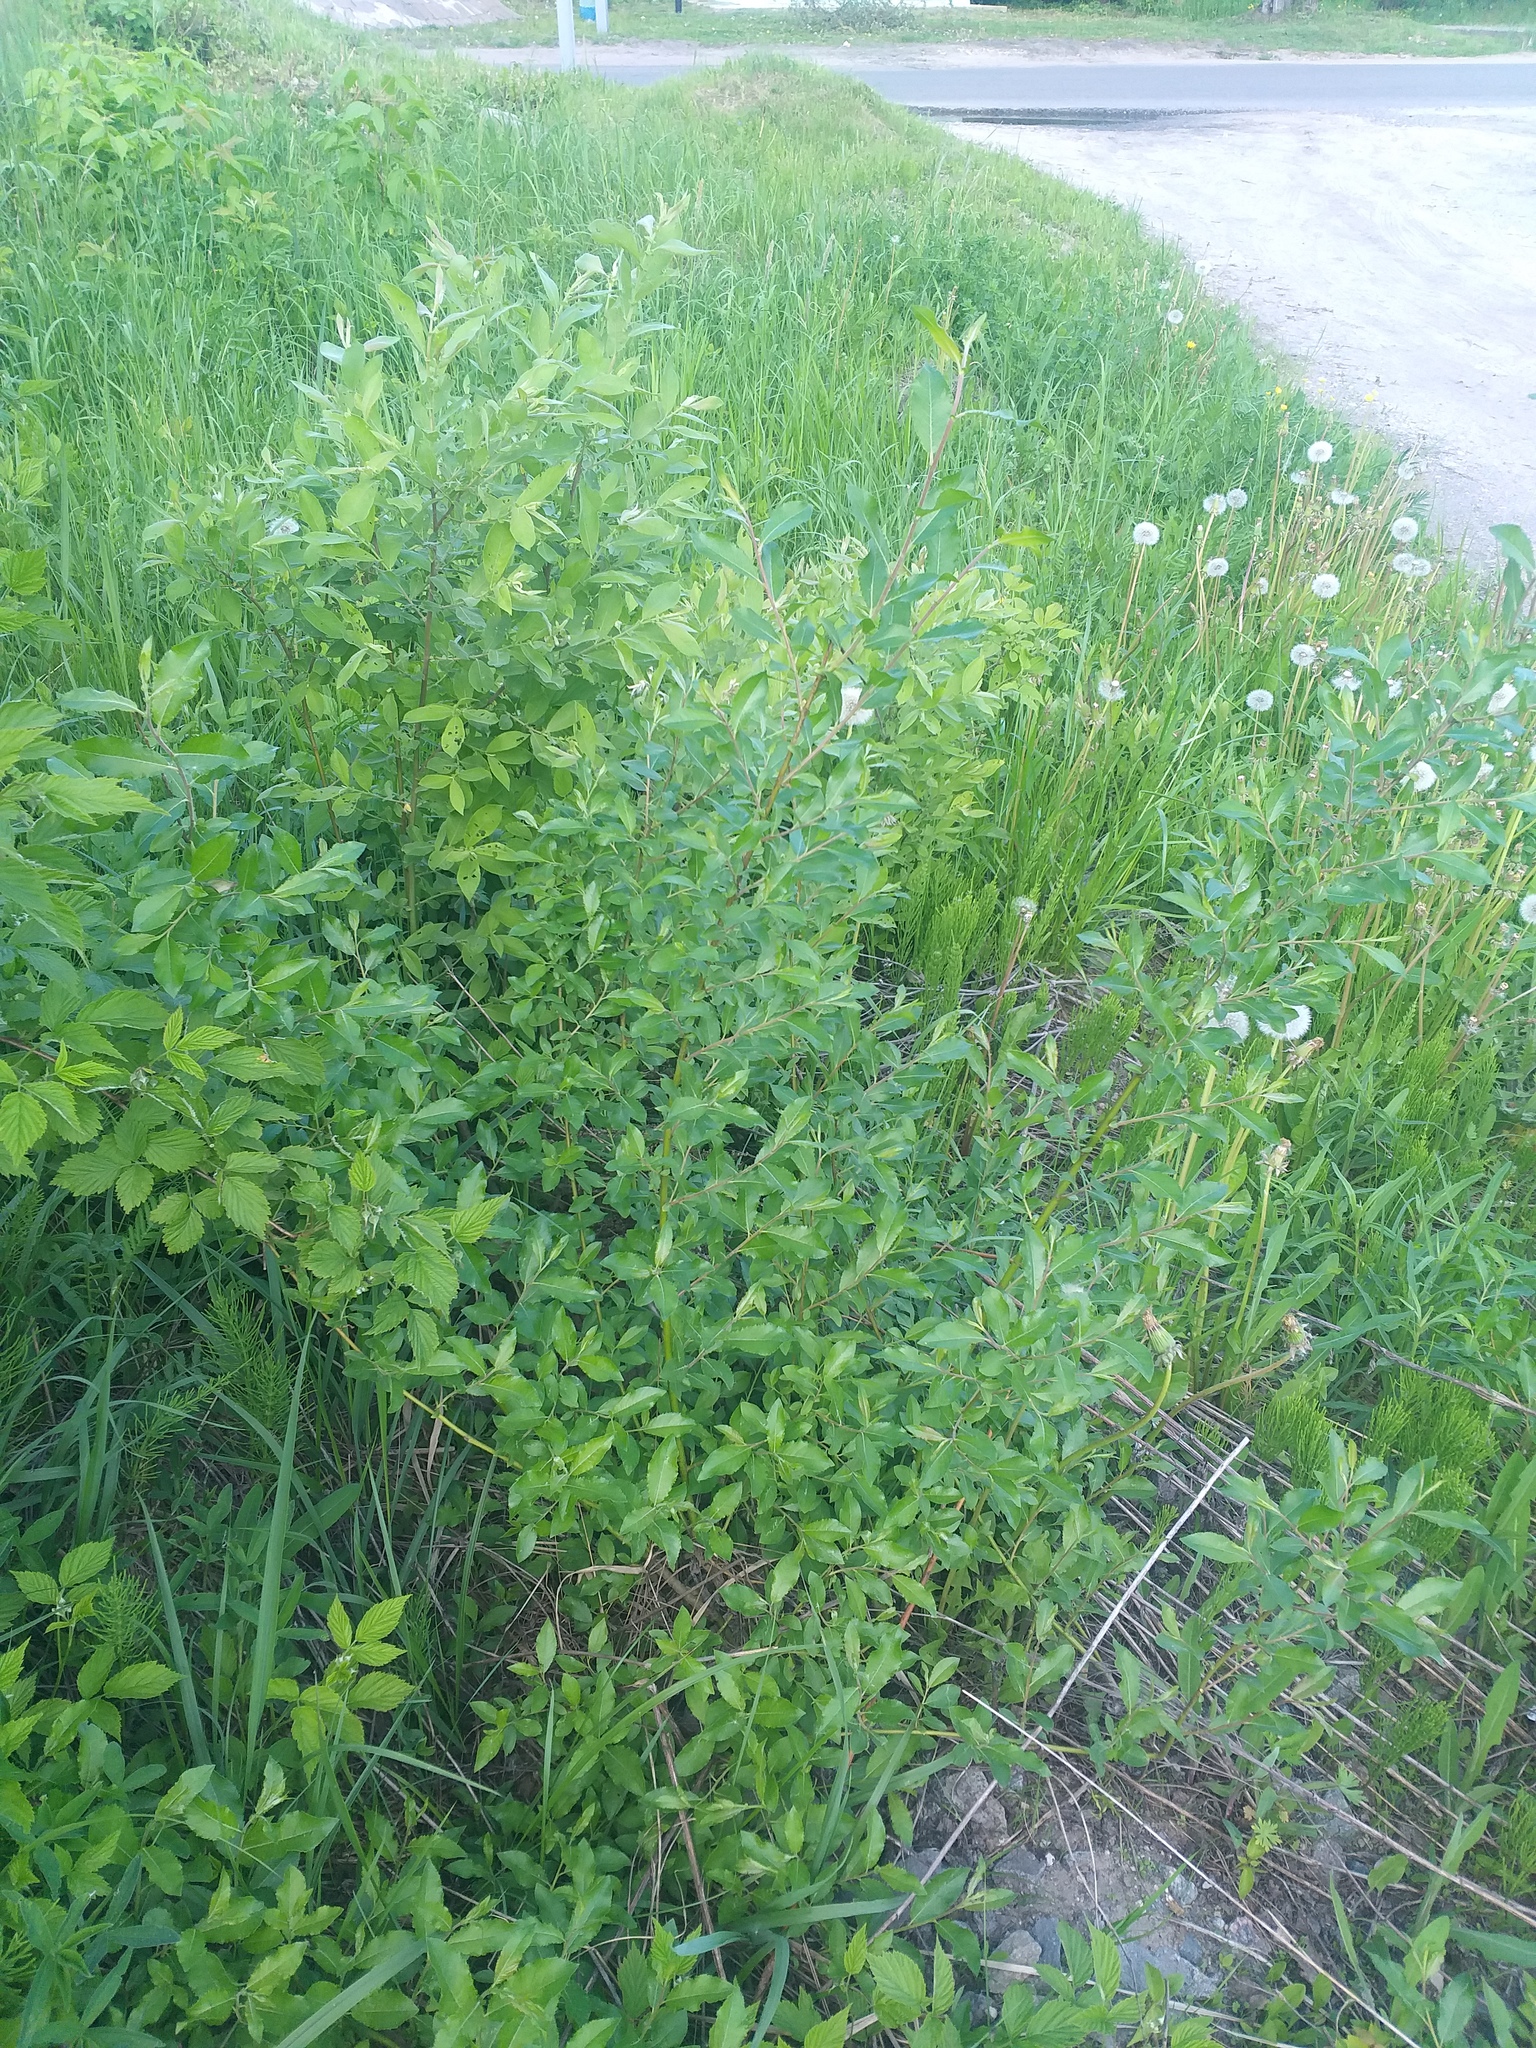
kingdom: Plantae
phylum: Tracheophyta
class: Magnoliopsida
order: Malpighiales
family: Salicaceae
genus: Salix
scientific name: Salix myrsinifolia
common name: Dark-leaved willow
